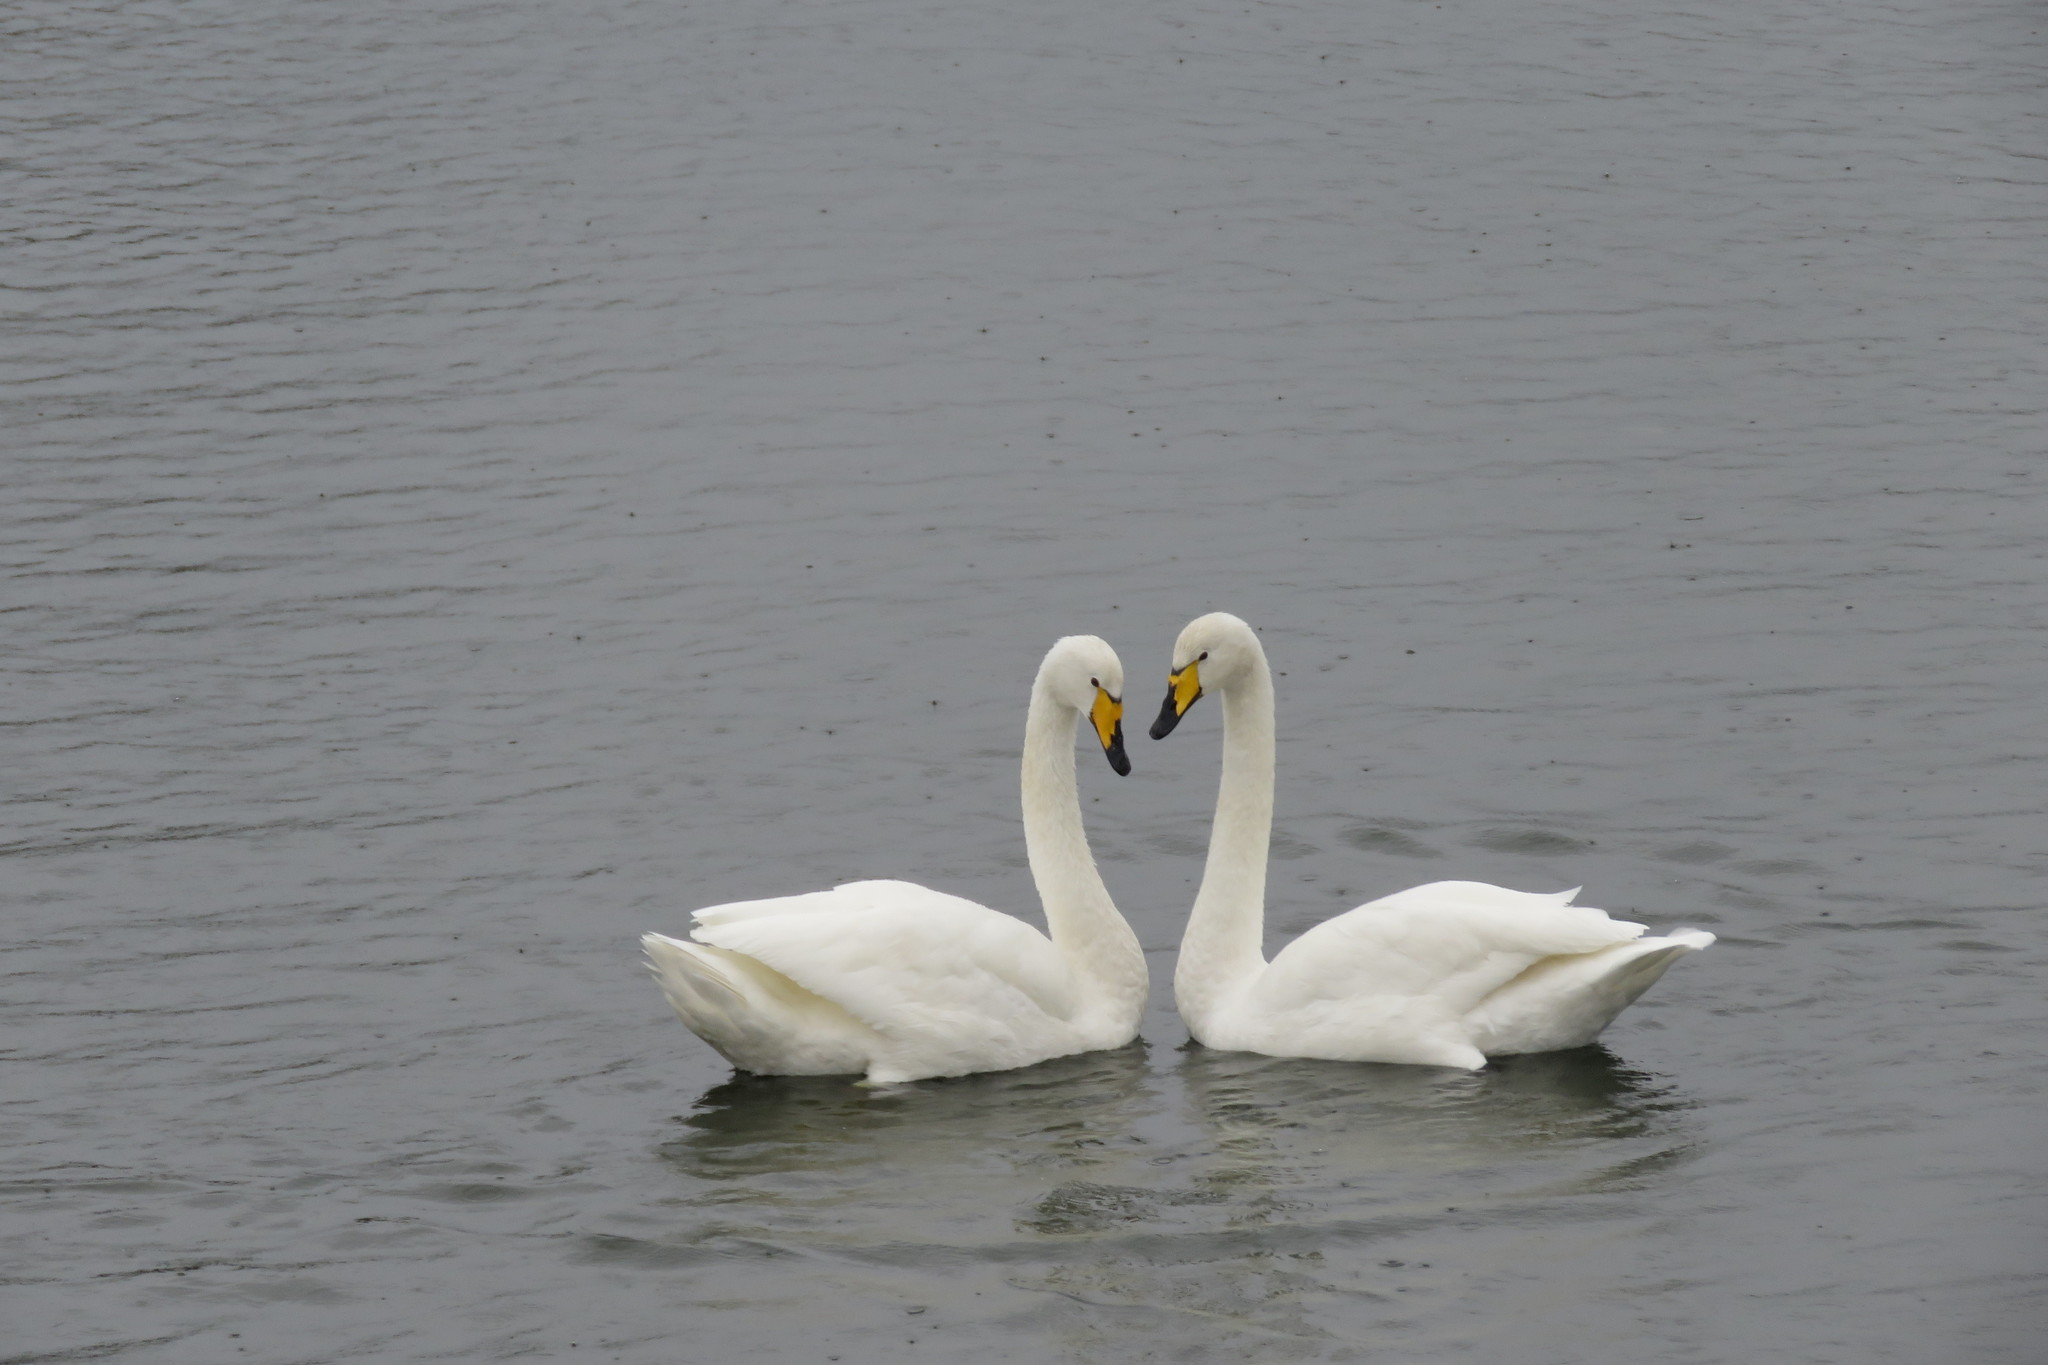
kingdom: Animalia
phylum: Chordata
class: Aves
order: Anseriformes
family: Anatidae
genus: Cygnus
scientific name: Cygnus cygnus
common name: Whooper swan
